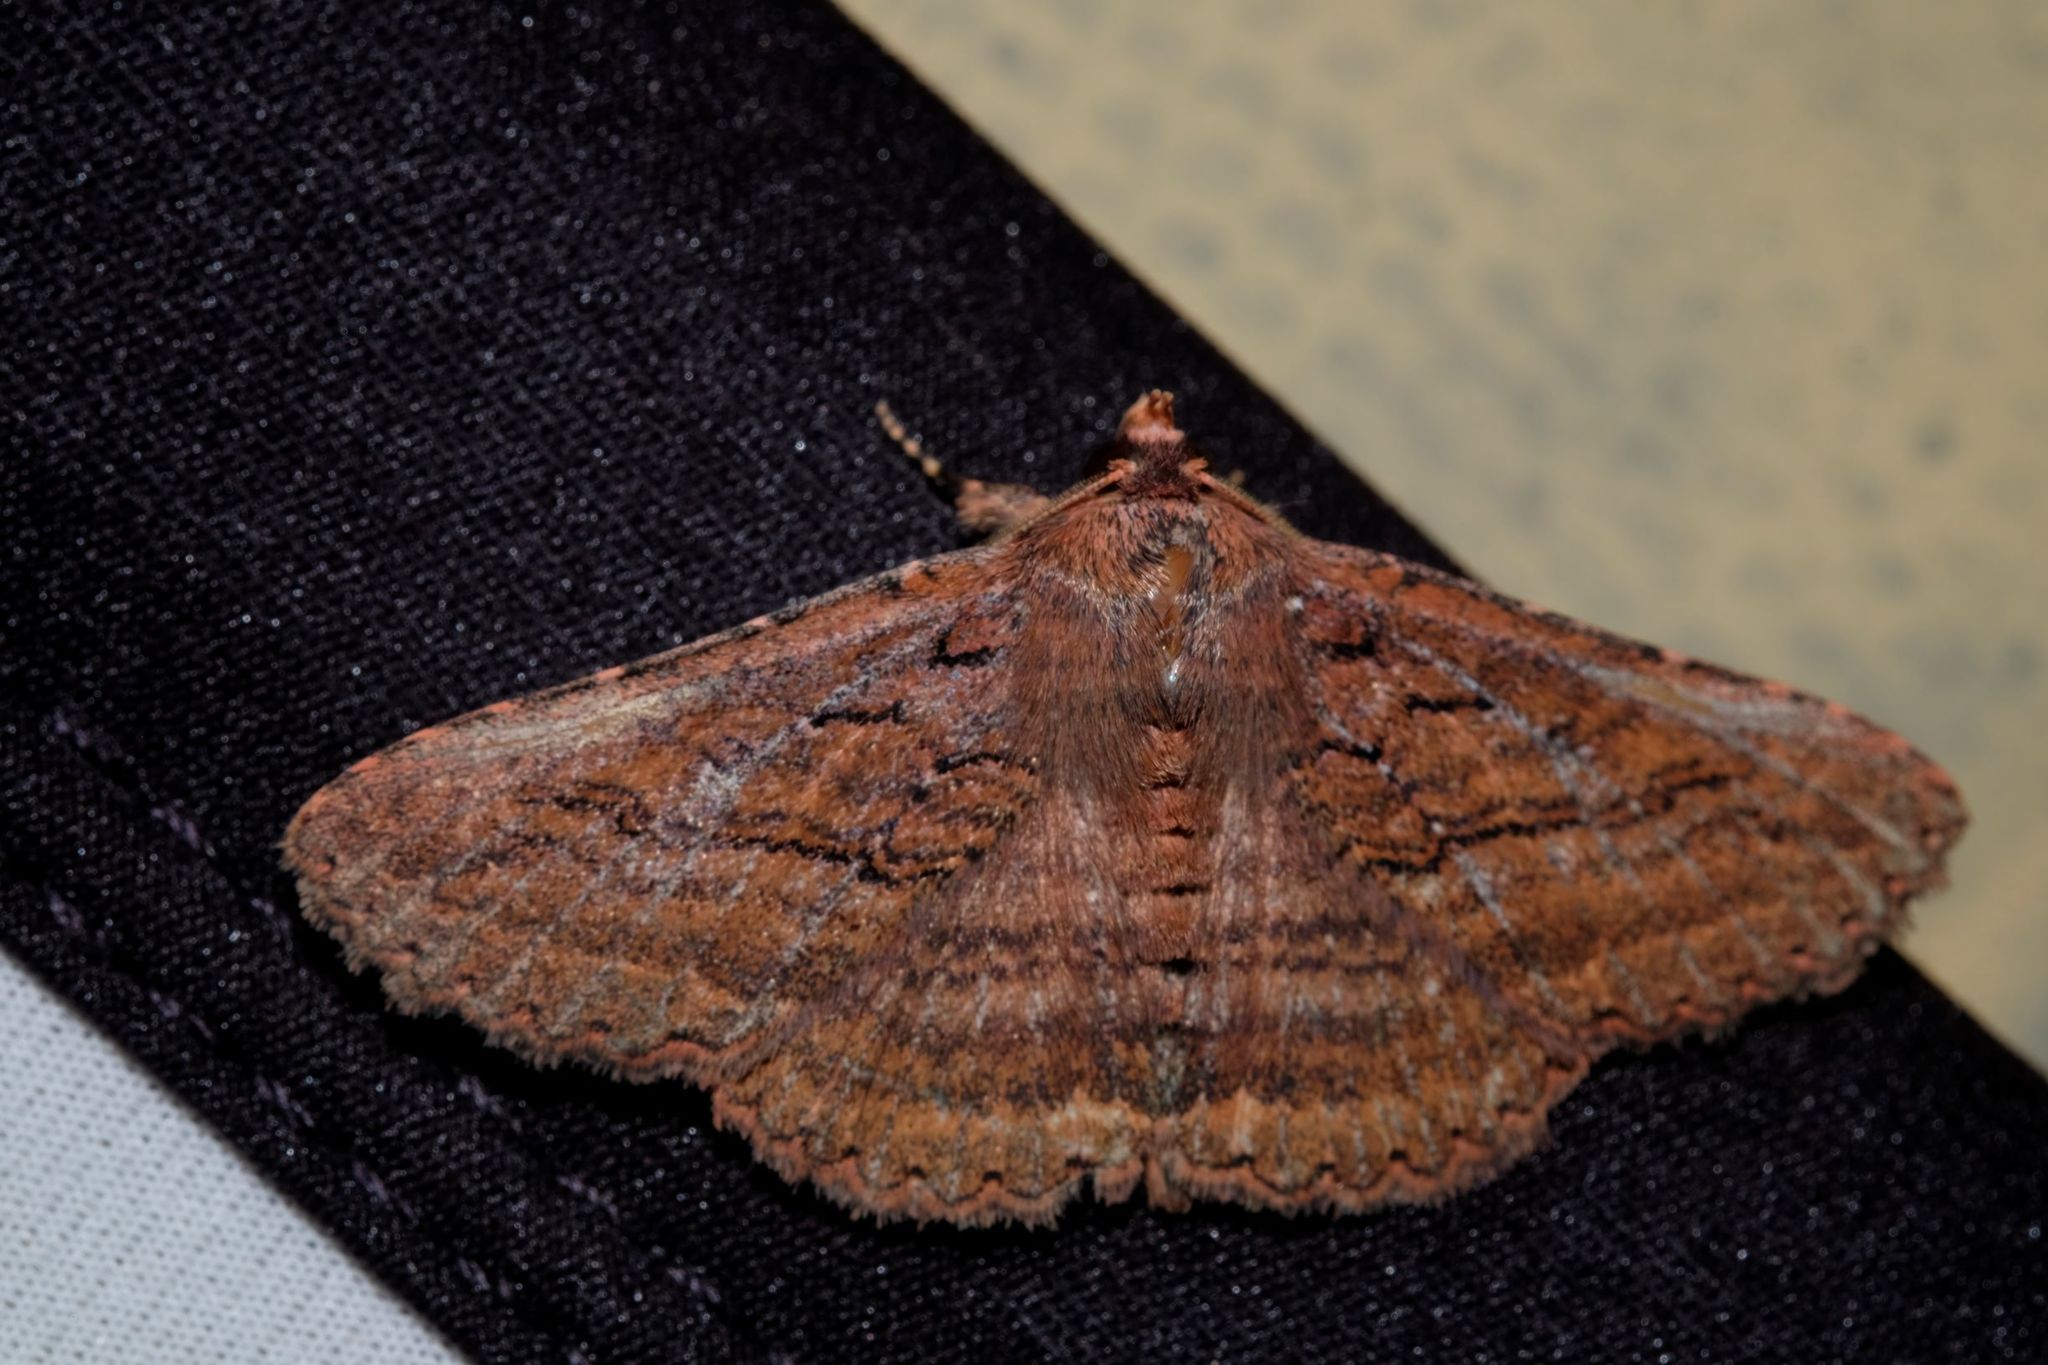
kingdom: Animalia
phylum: Arthropoda
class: Insecta
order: Lepidoptera
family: Erebidae
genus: Praxis
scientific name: Praxis porphyretica
